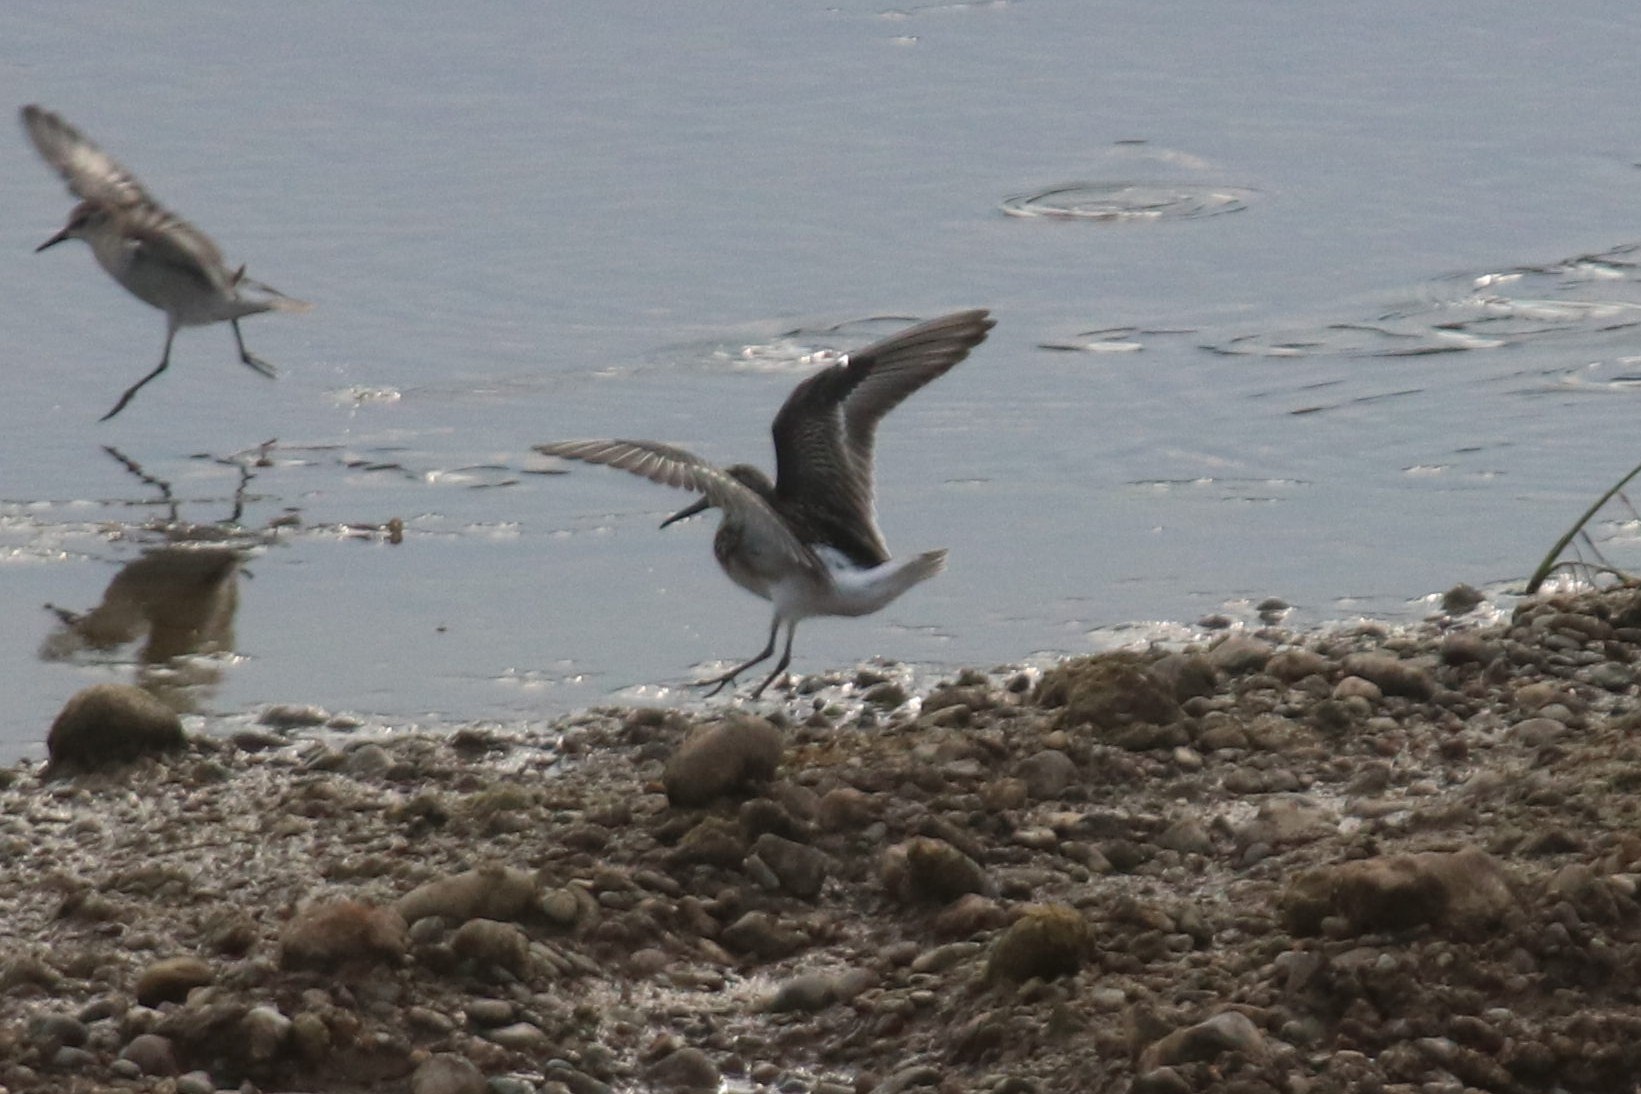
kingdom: Animalia
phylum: Chordata
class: Aves
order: Charadriiformes
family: Scolopacidae
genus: Calidris
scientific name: Calidris alpina
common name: Dunlin
